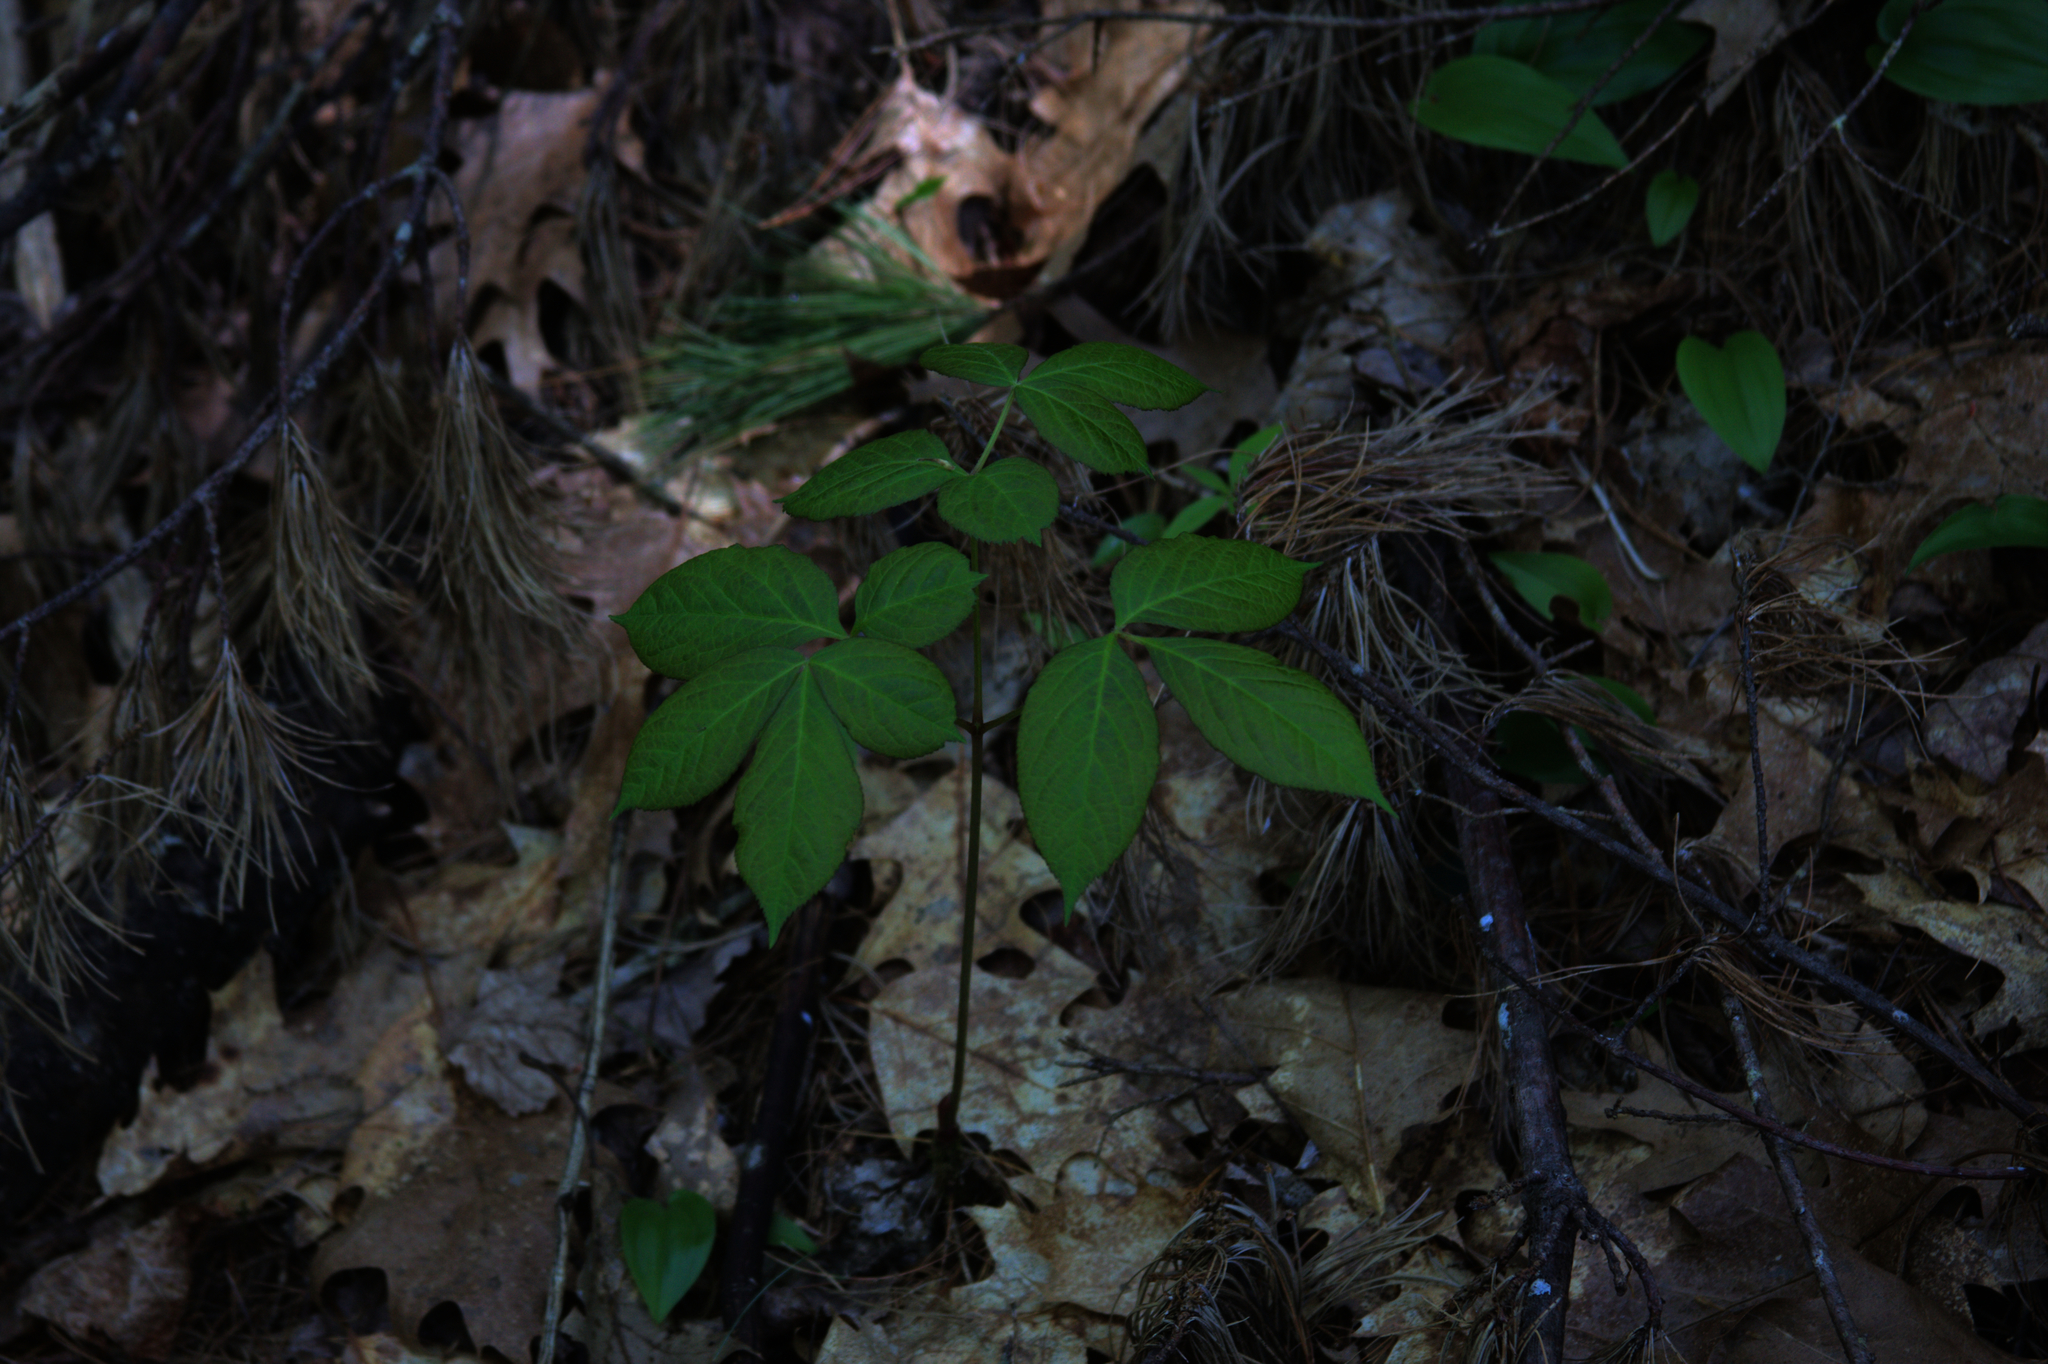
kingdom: Plantae
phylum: Tracheophyta
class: Magnoliopsida
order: Apiales
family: Araliaceae
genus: Aralia
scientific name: Aralia nudicaulis
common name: Wild sarsaparilla
